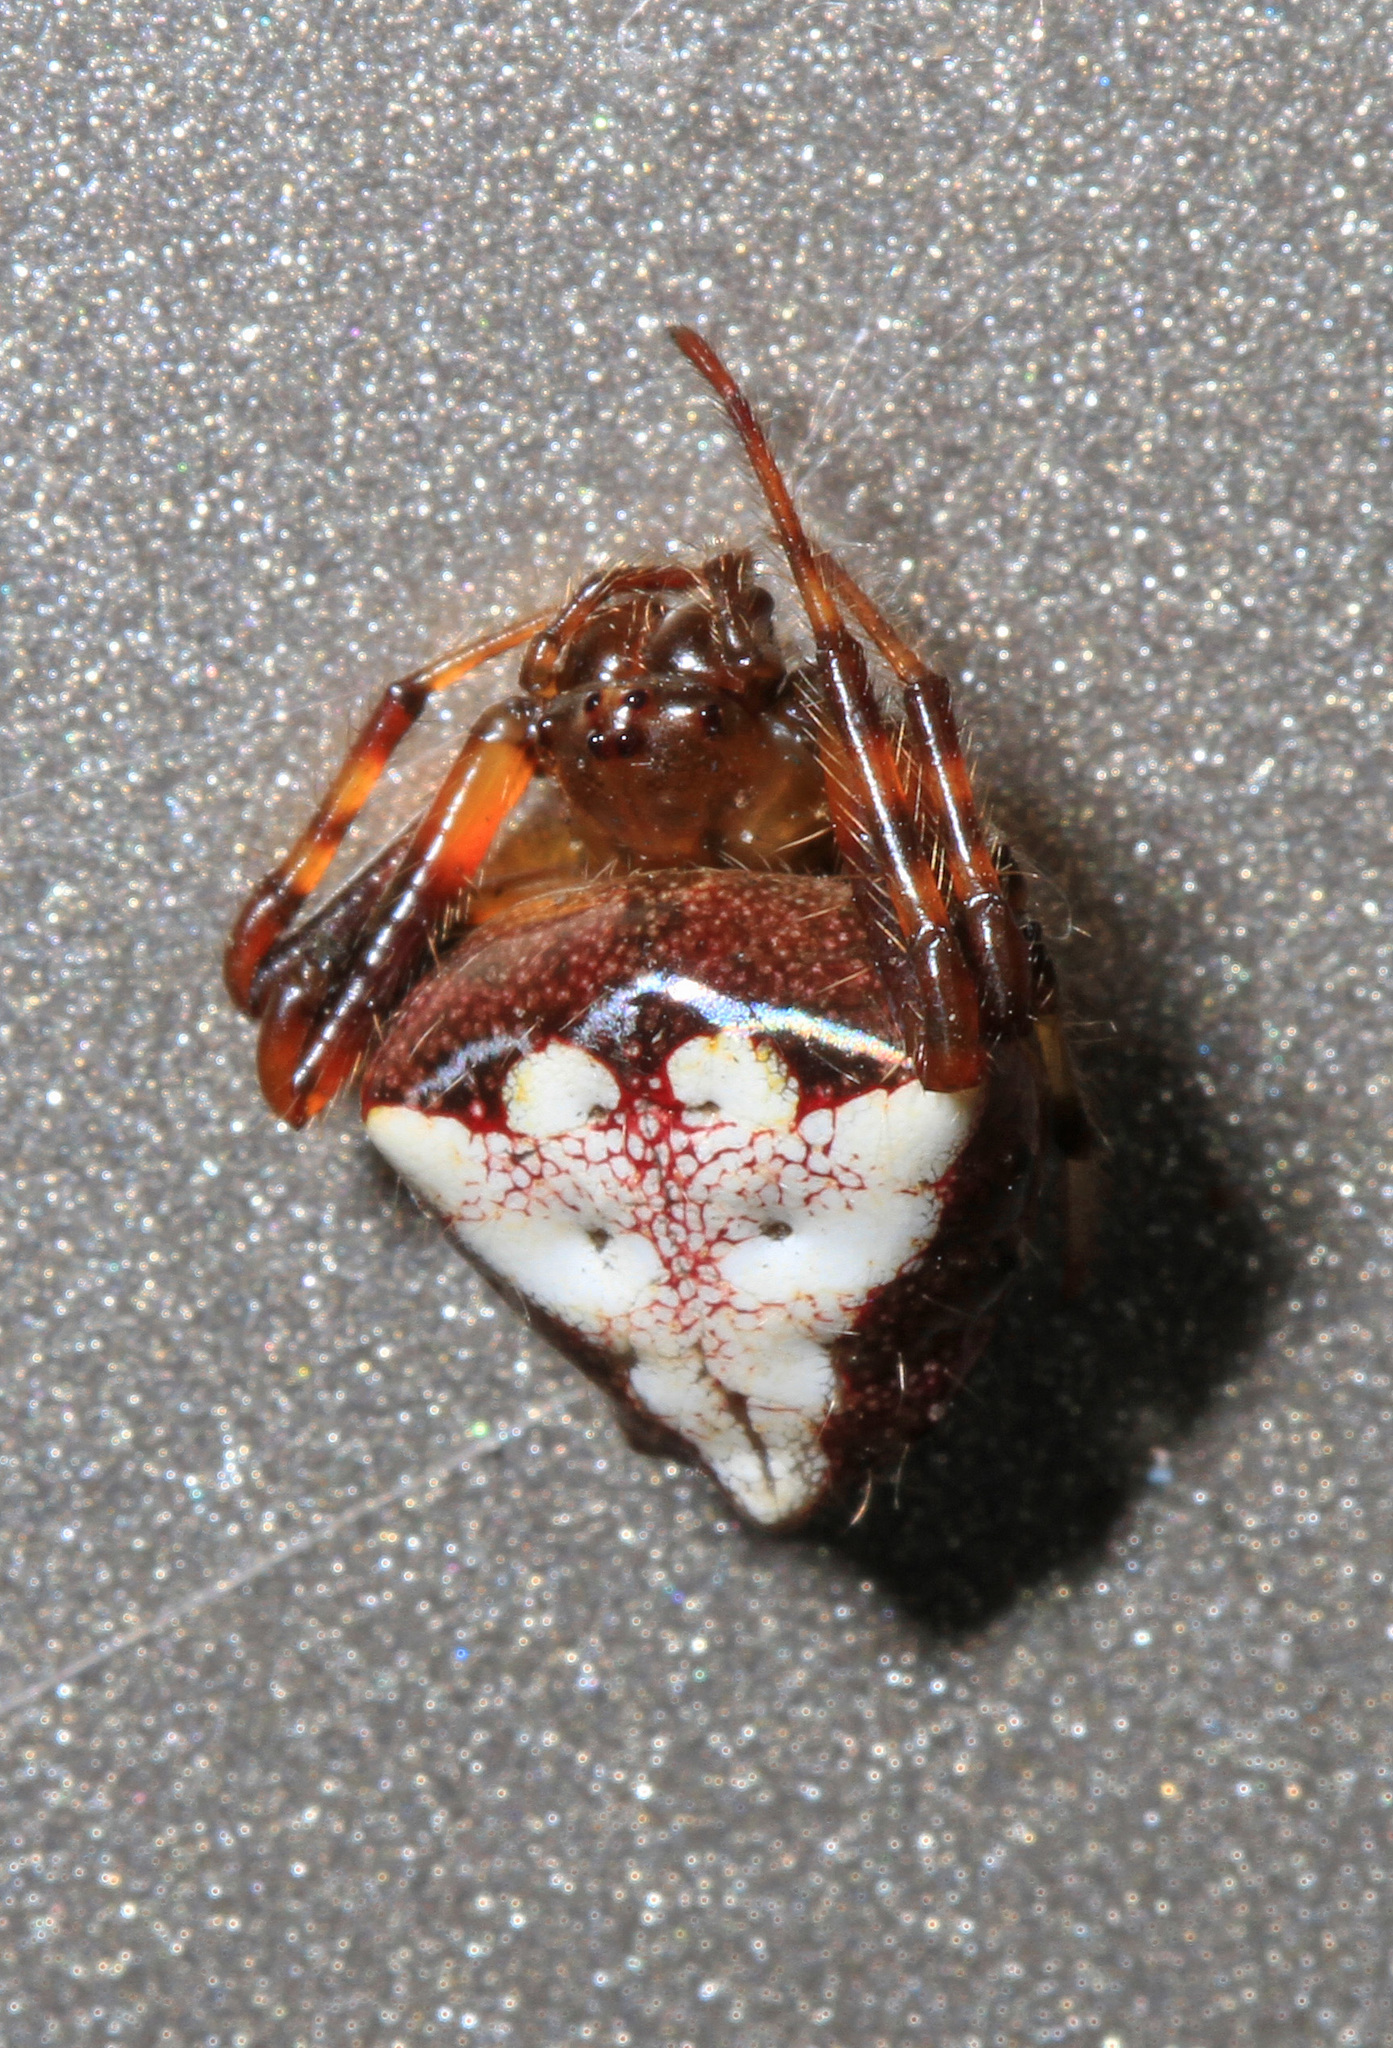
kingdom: Animalia
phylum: Arthropoda
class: Arachnida
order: Araneae
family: Araneidae
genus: Verrucosa
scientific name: Verrucosa arenata
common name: Orb weavers
